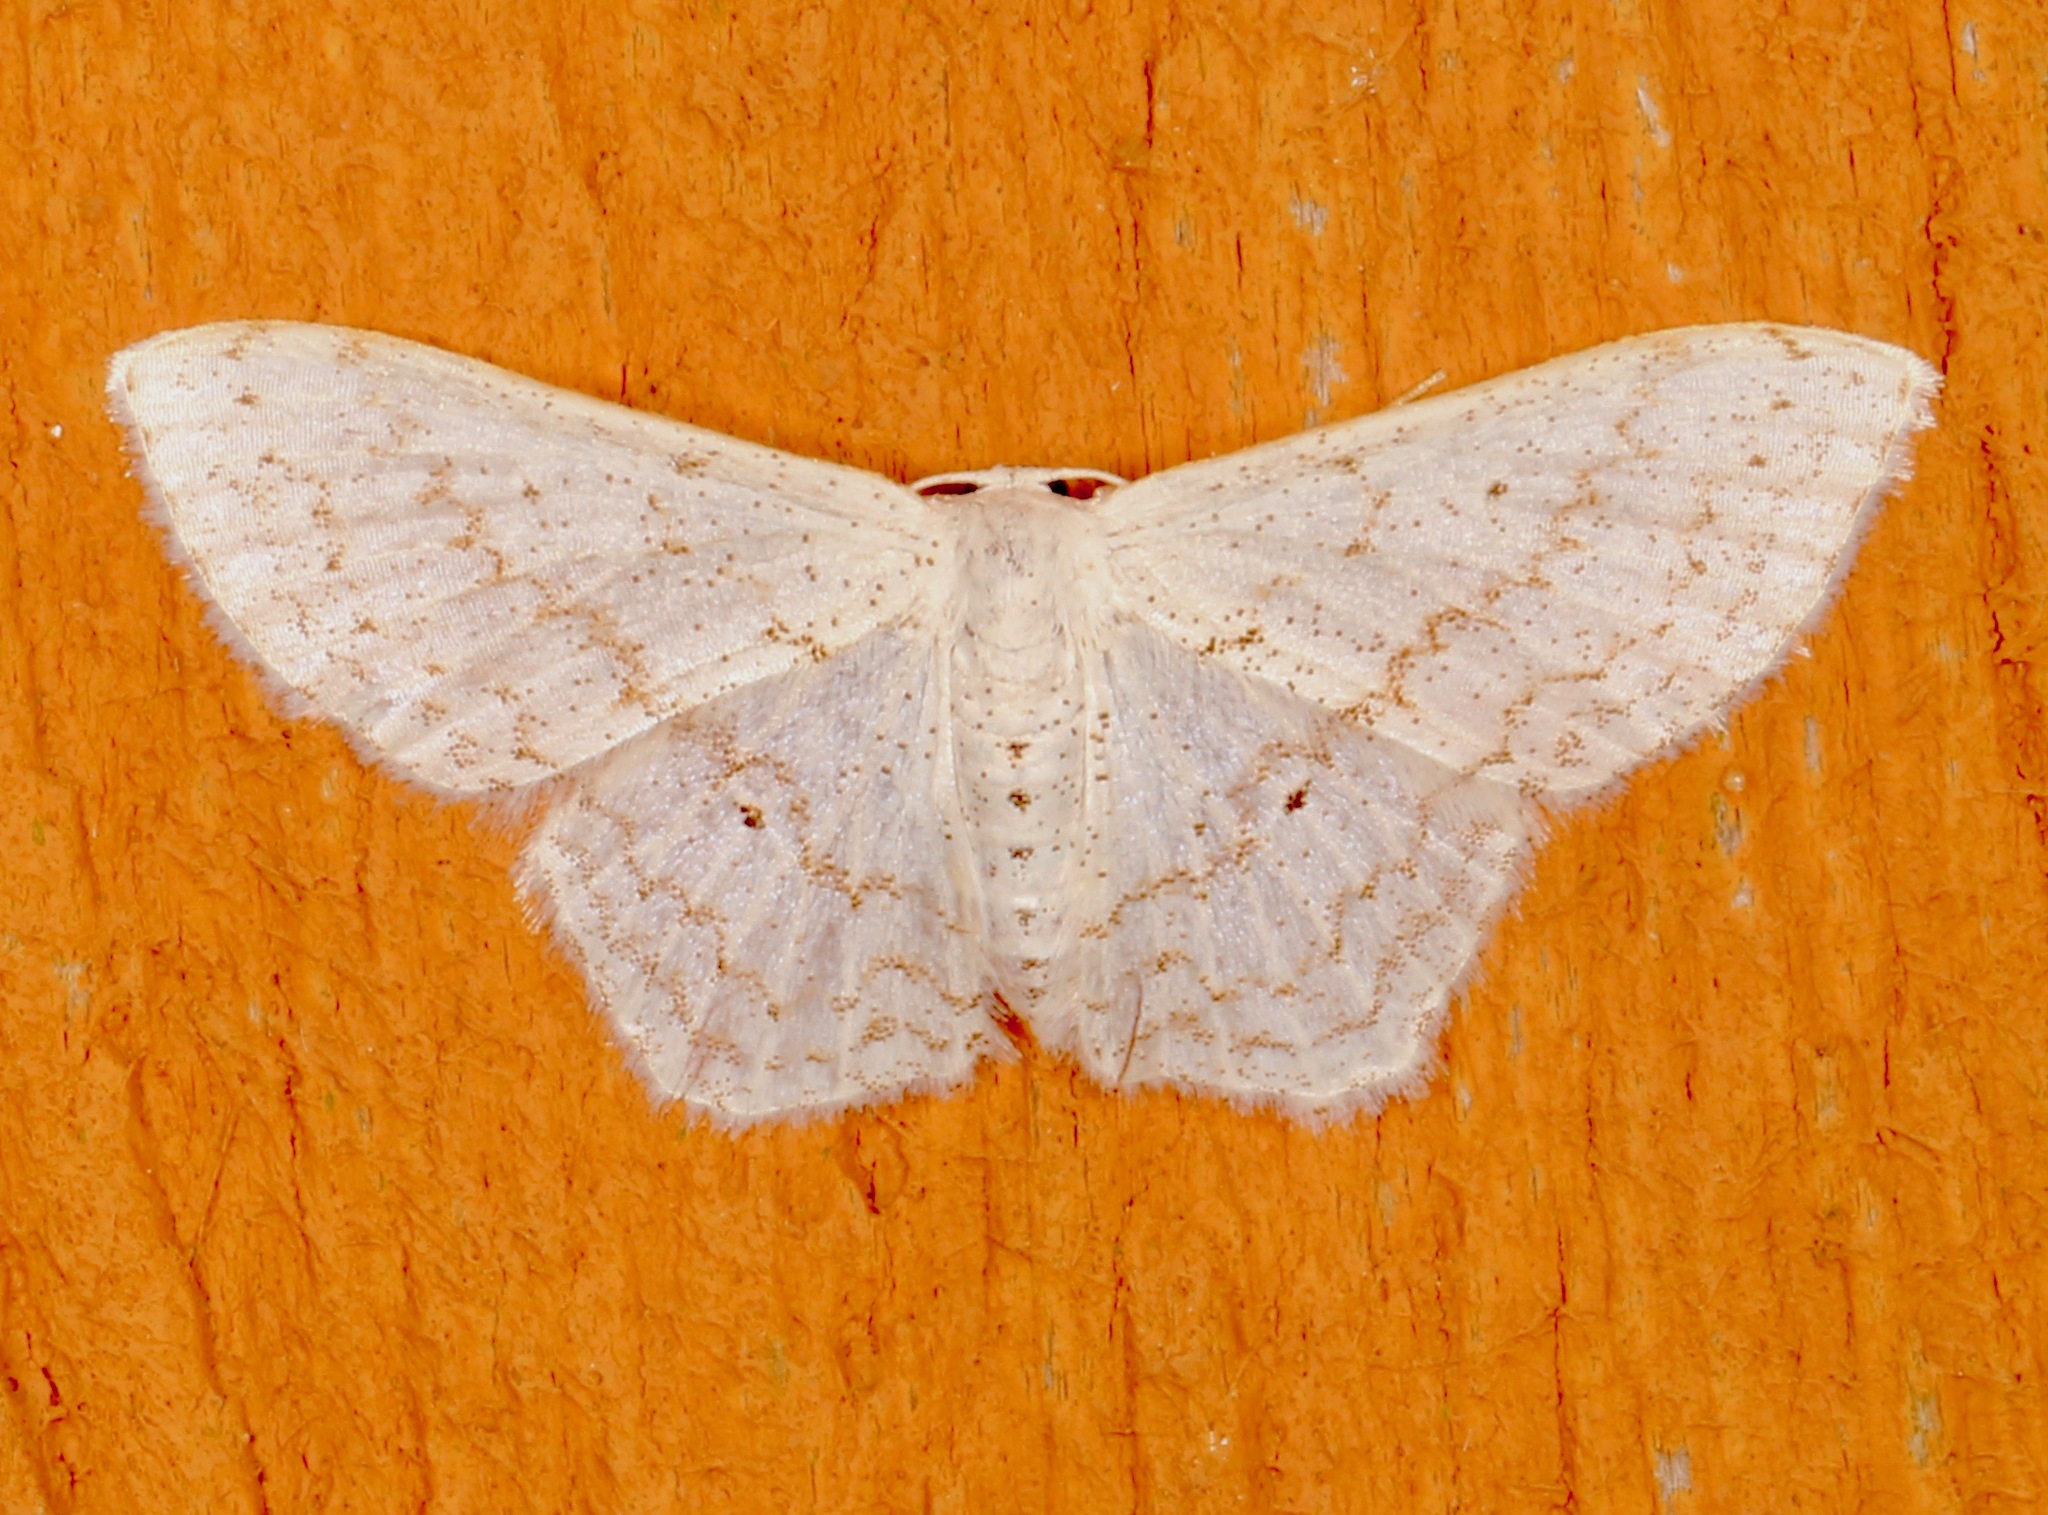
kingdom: Animalia
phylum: Arthropoda
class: Insecta
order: Lepidoptera
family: Geometridae
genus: Idaea
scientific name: Idaea tacturata
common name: Dot-lined wave
